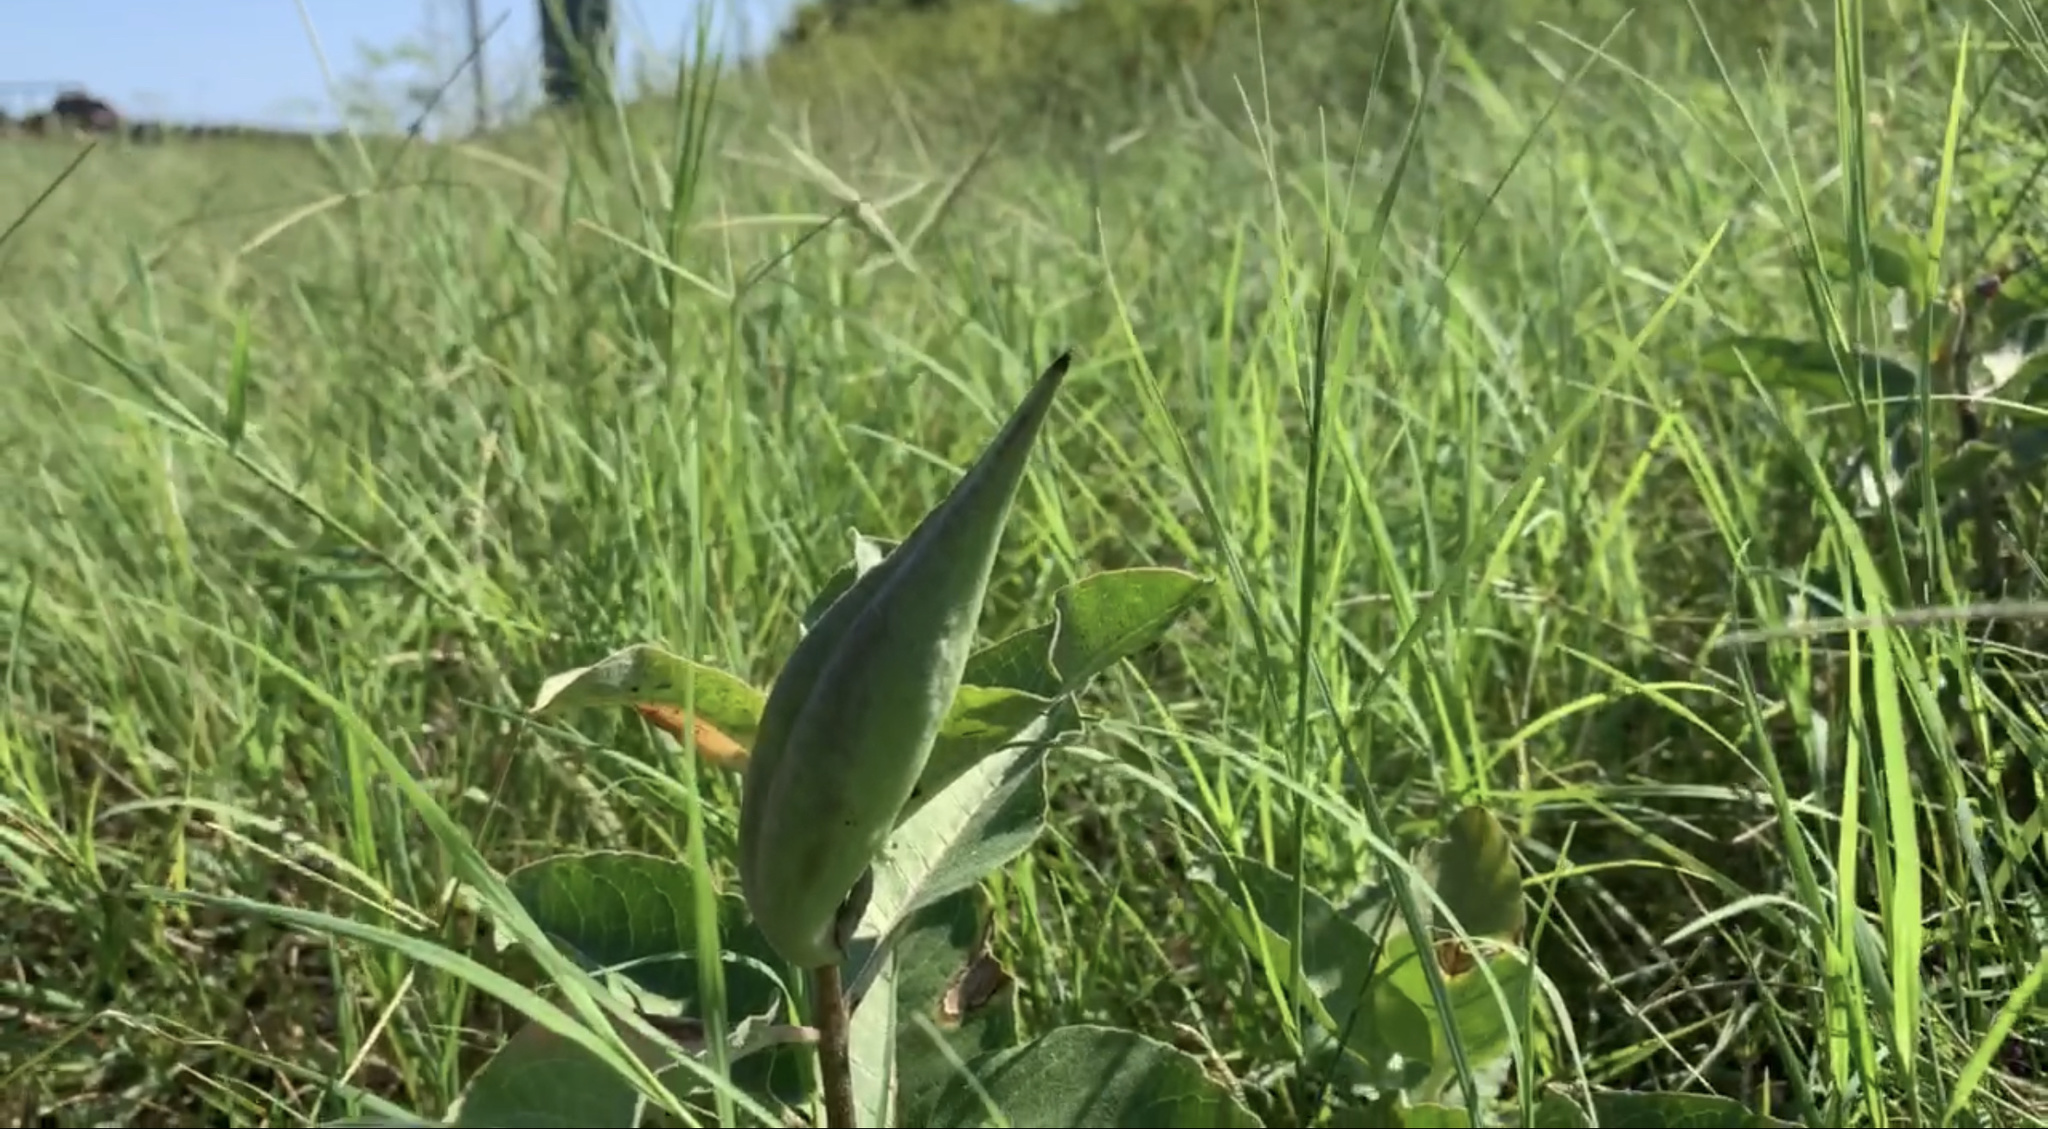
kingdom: Plantae
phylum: Tracheophyta
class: Magnoliopsida
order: Gentianales
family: Apocynaceae
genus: Asclepias
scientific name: Asclepias oenotheroides
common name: Zizotes milkweed
